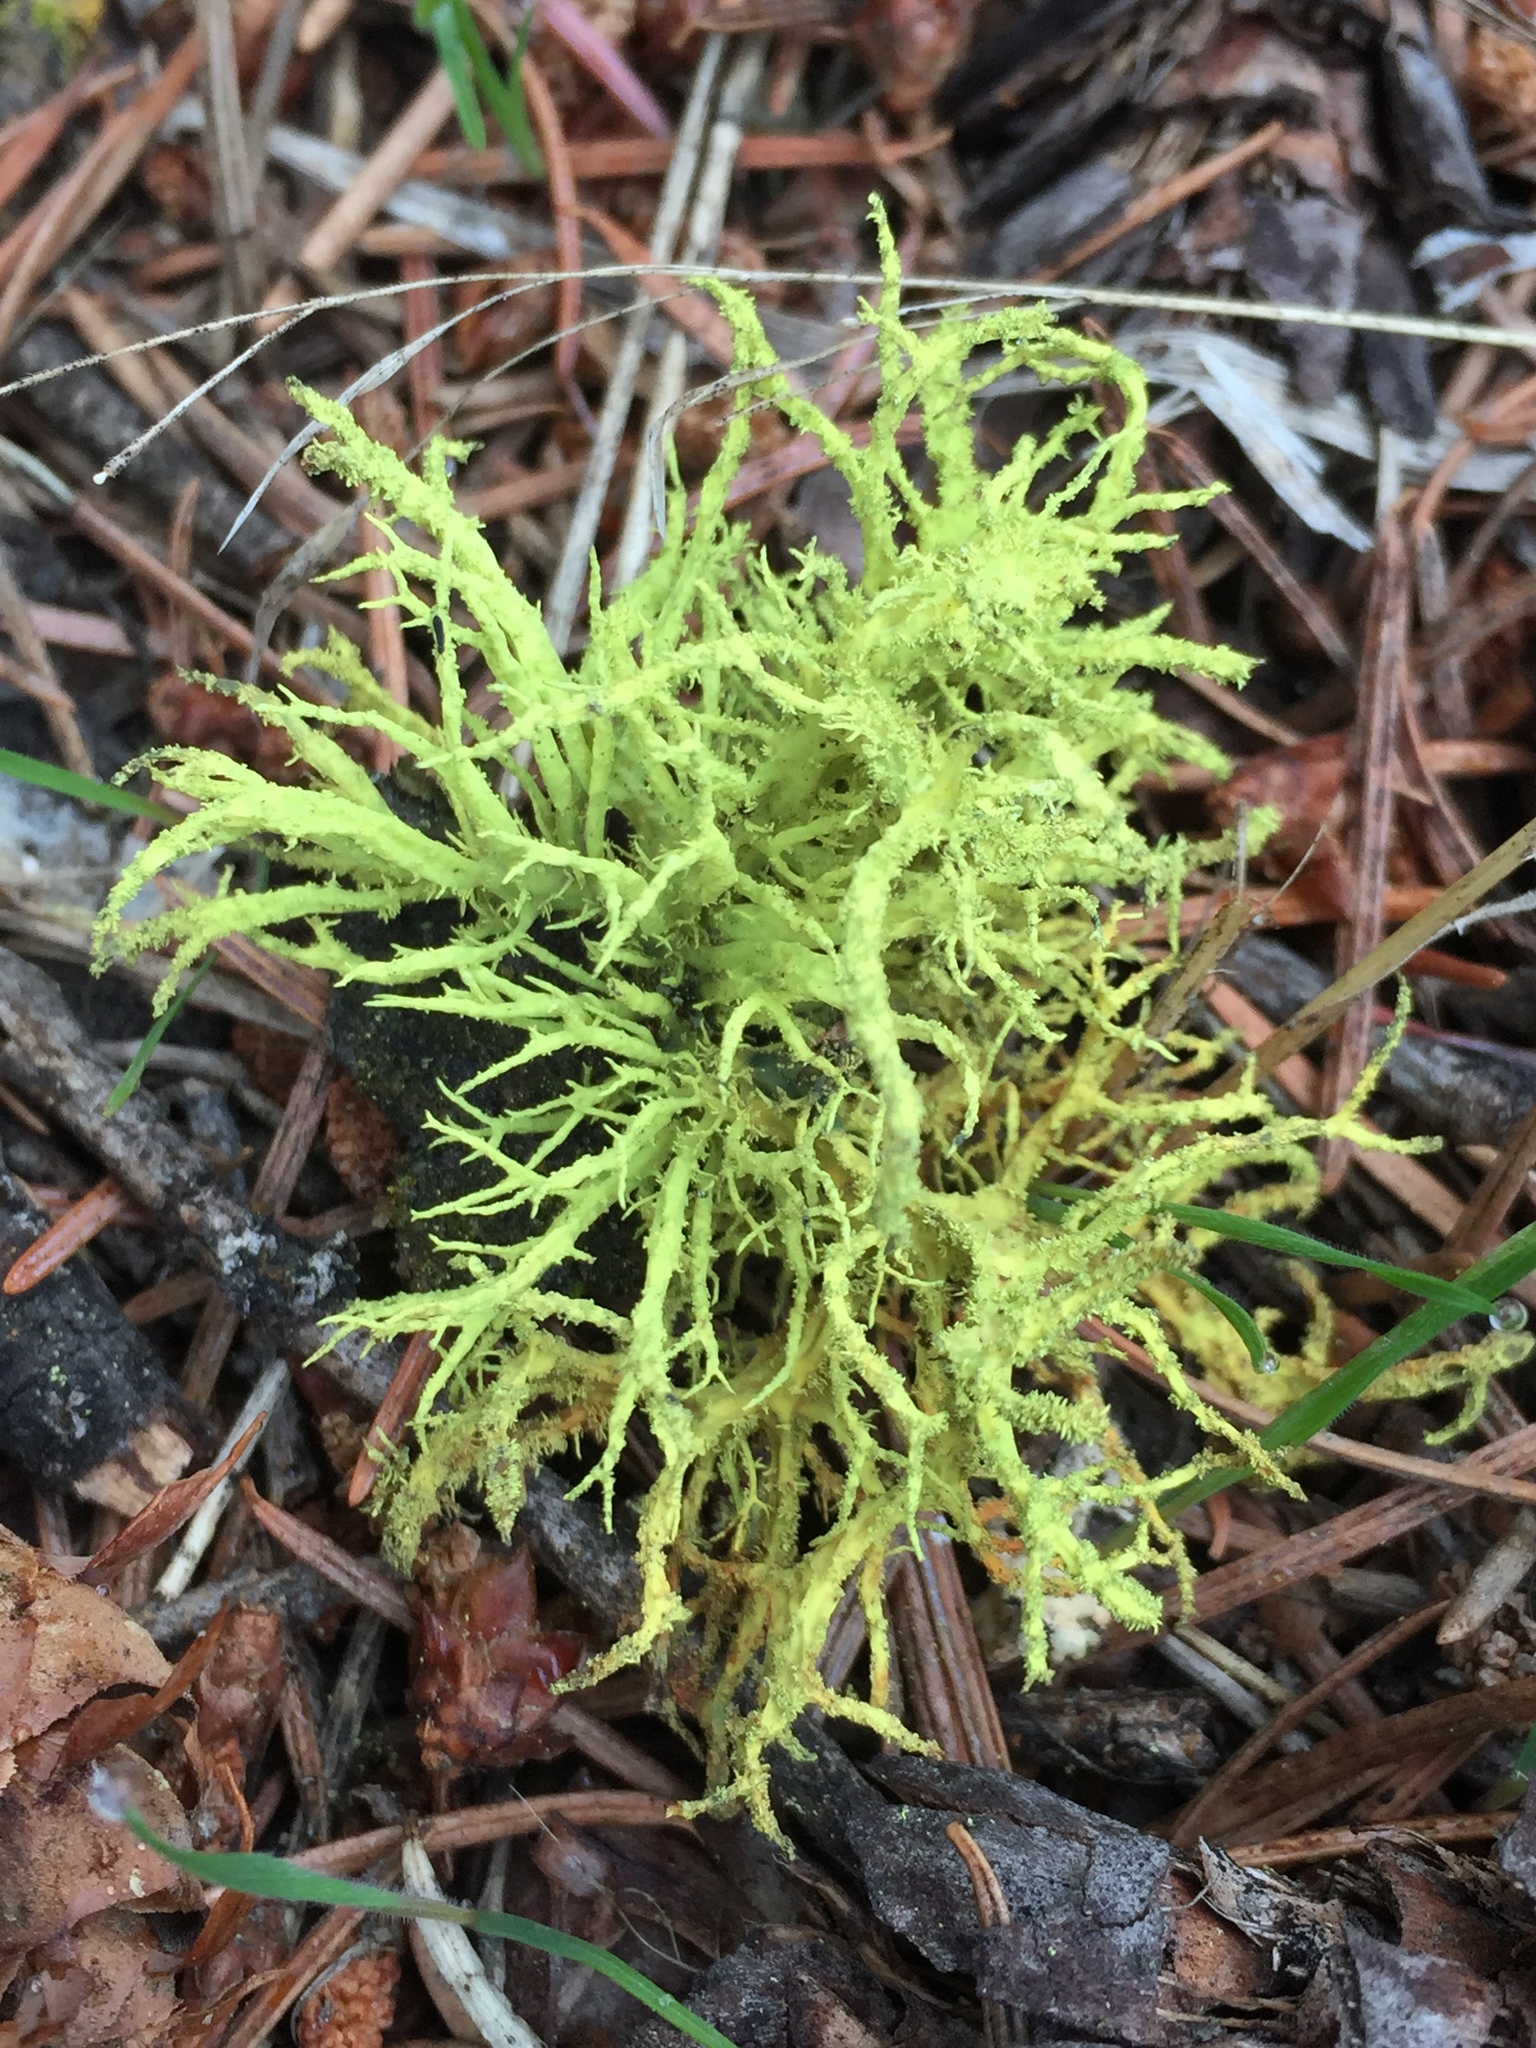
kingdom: Fungi
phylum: Ascomycota
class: Lecanoromycetes
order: Lecanorales
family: Parmeliaceae
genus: Letharia
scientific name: Letharia vulpina
